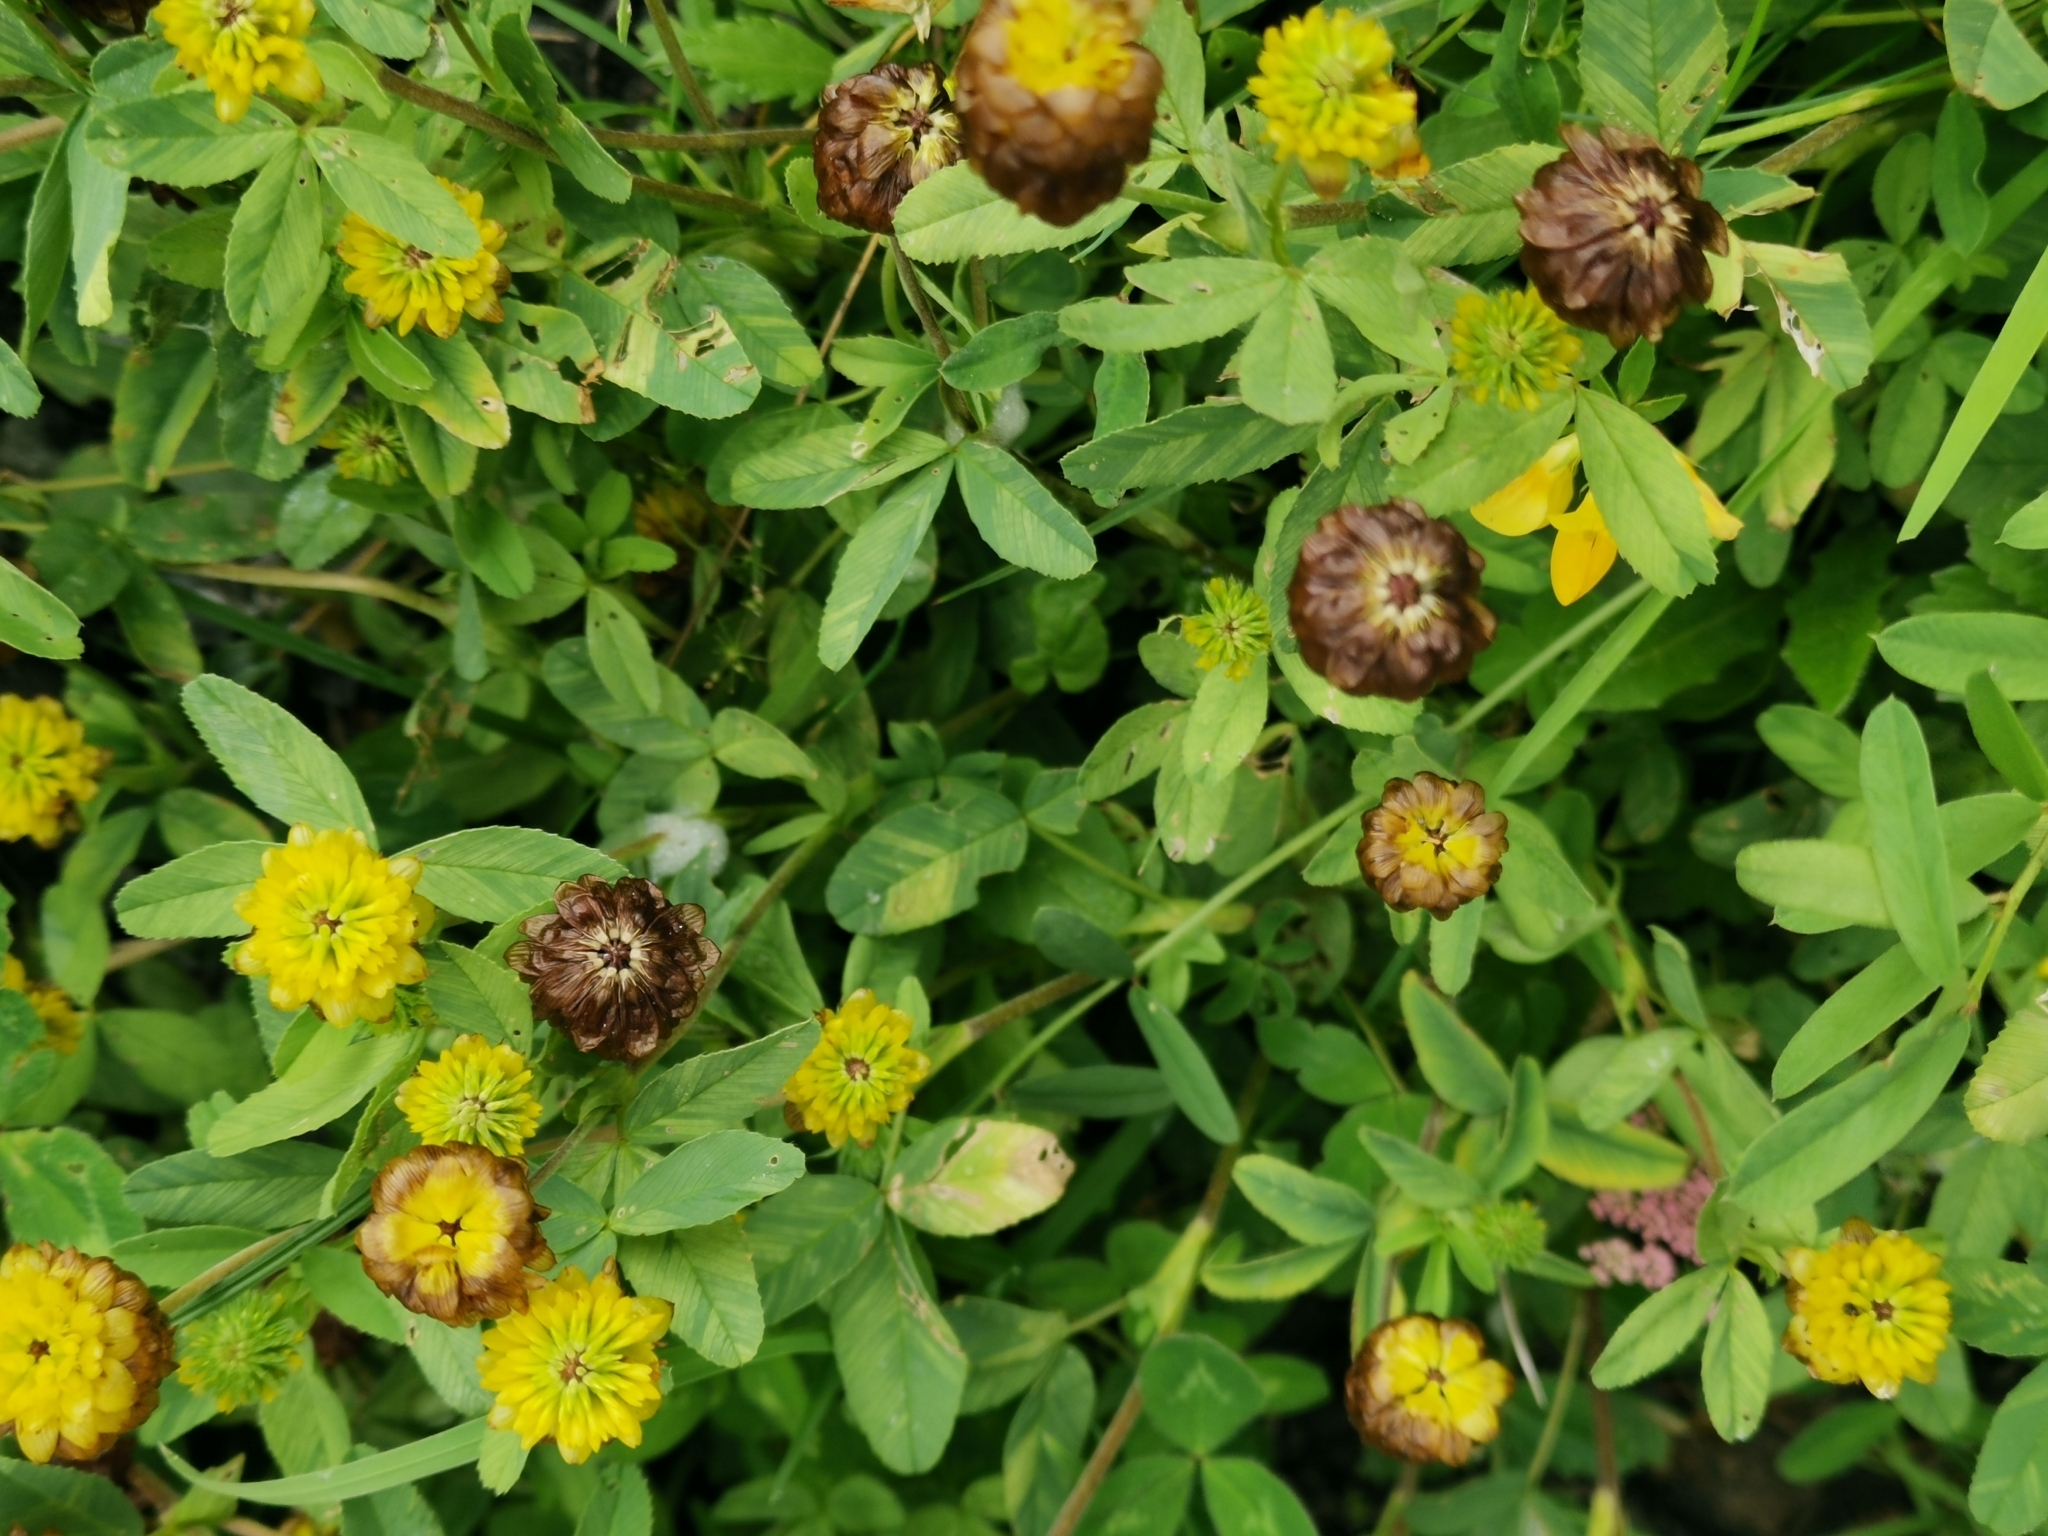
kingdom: Plantae
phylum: Tracheophyta
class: Magnoliopsida
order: Fabales
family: Fabaceae
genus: Trifolium
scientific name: Trifolium badium
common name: Brown clover
